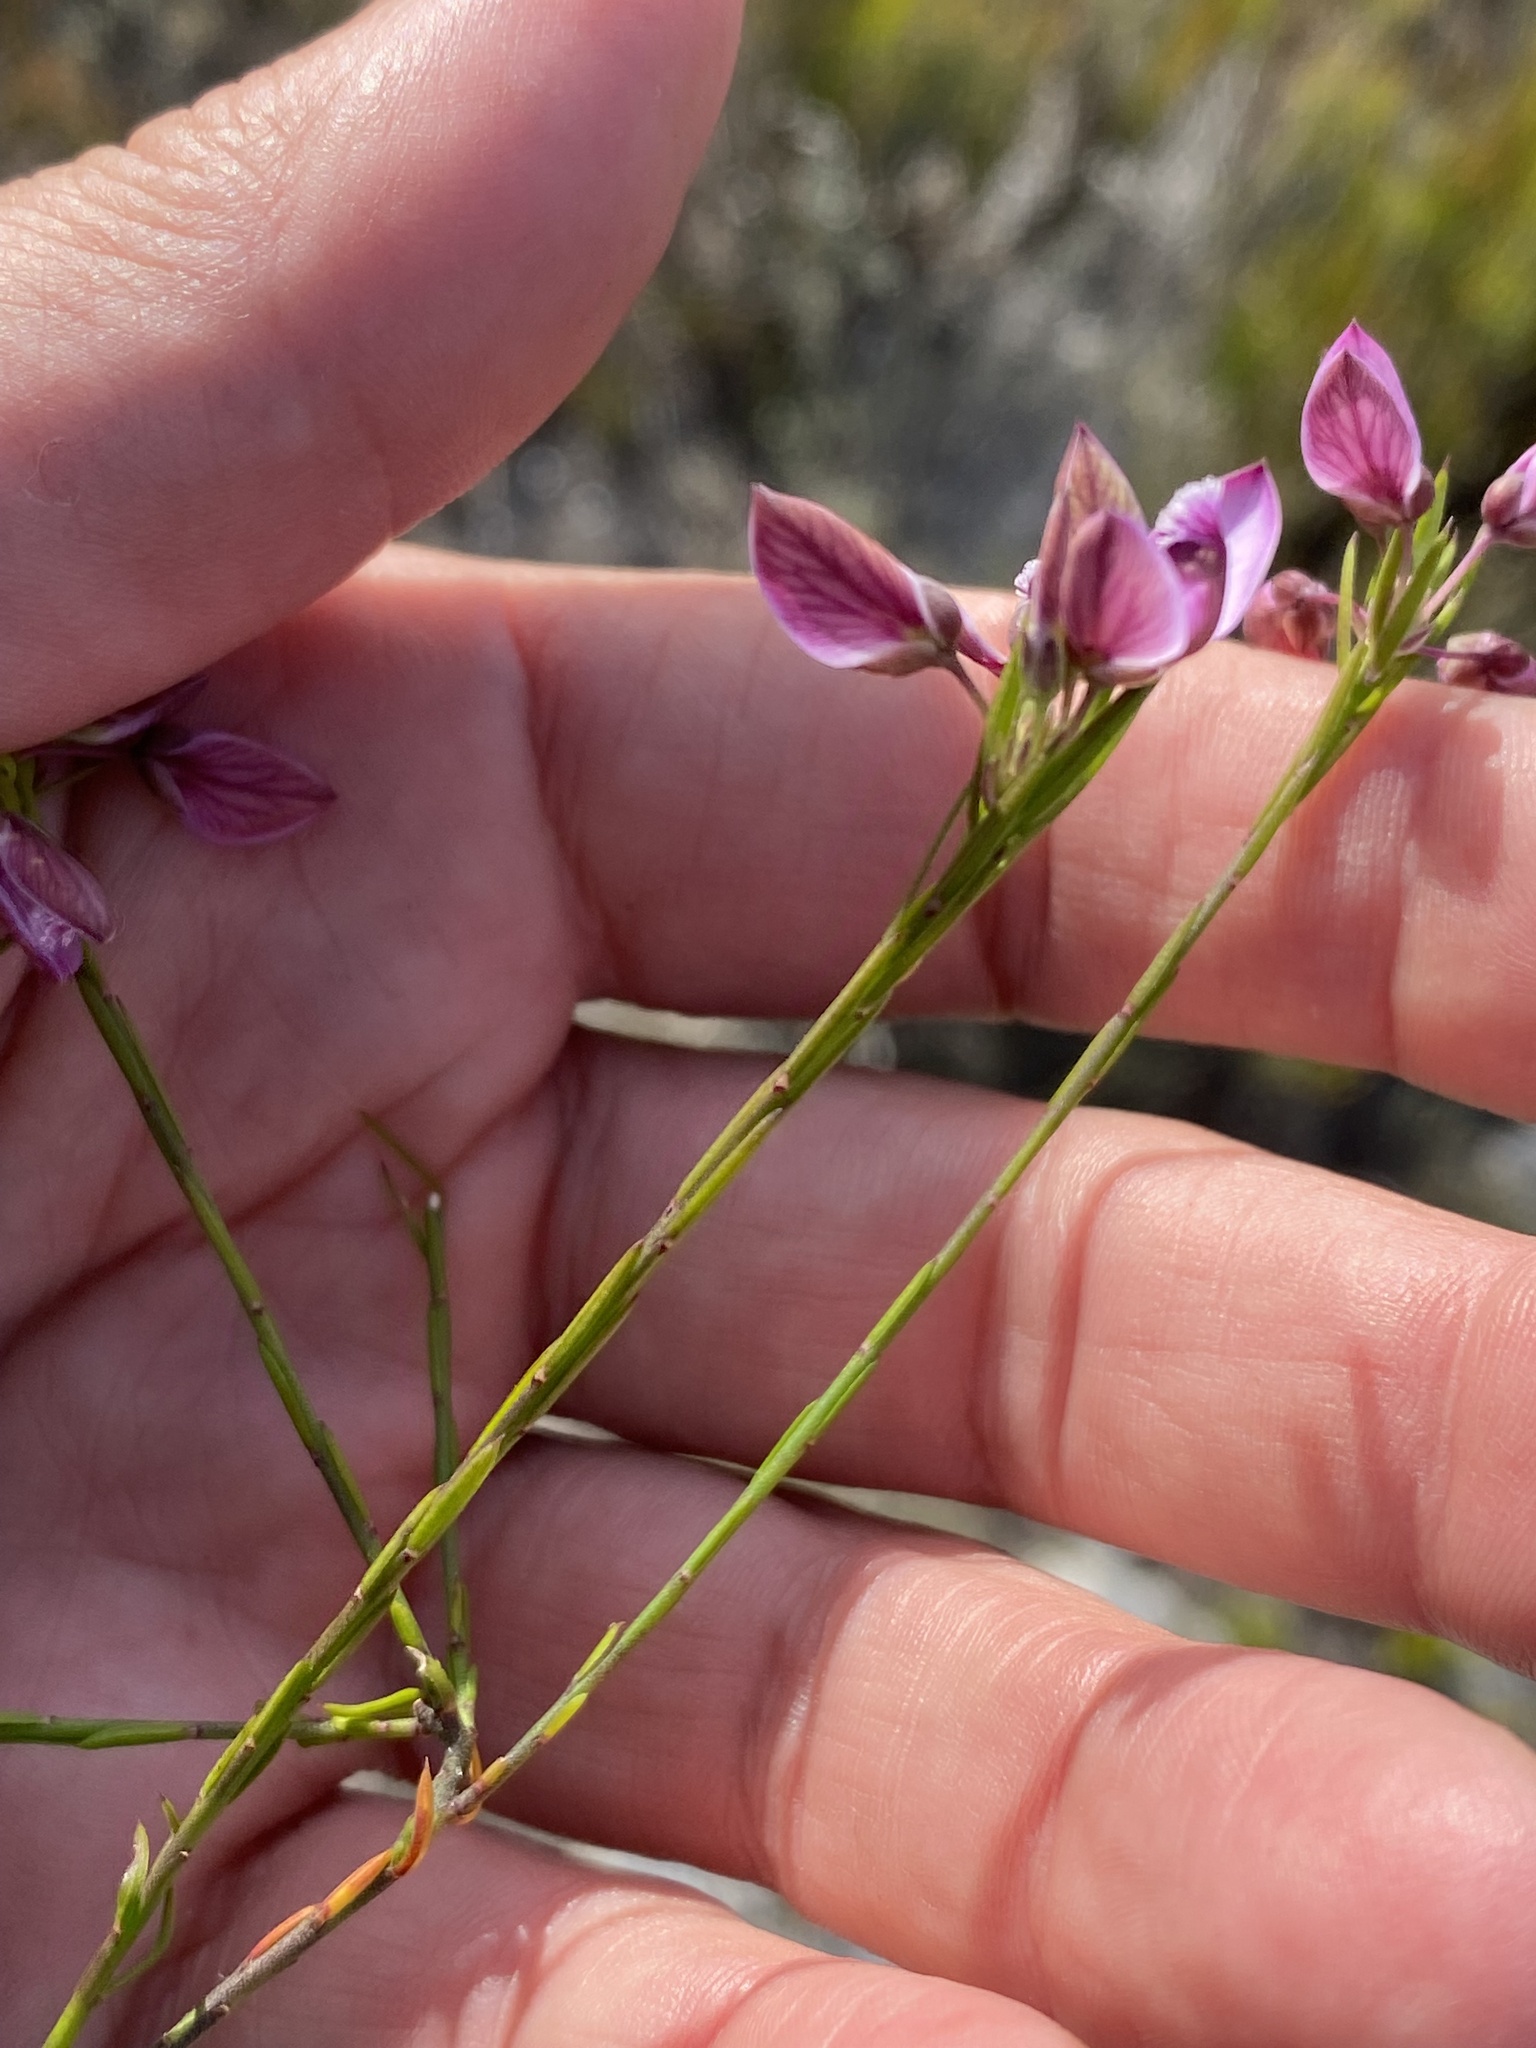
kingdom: Plantae
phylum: Tracheophyta
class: Magnoliopsida
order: Fabales
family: Polygalaceae
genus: Polygala
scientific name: Polygala ericifolia
